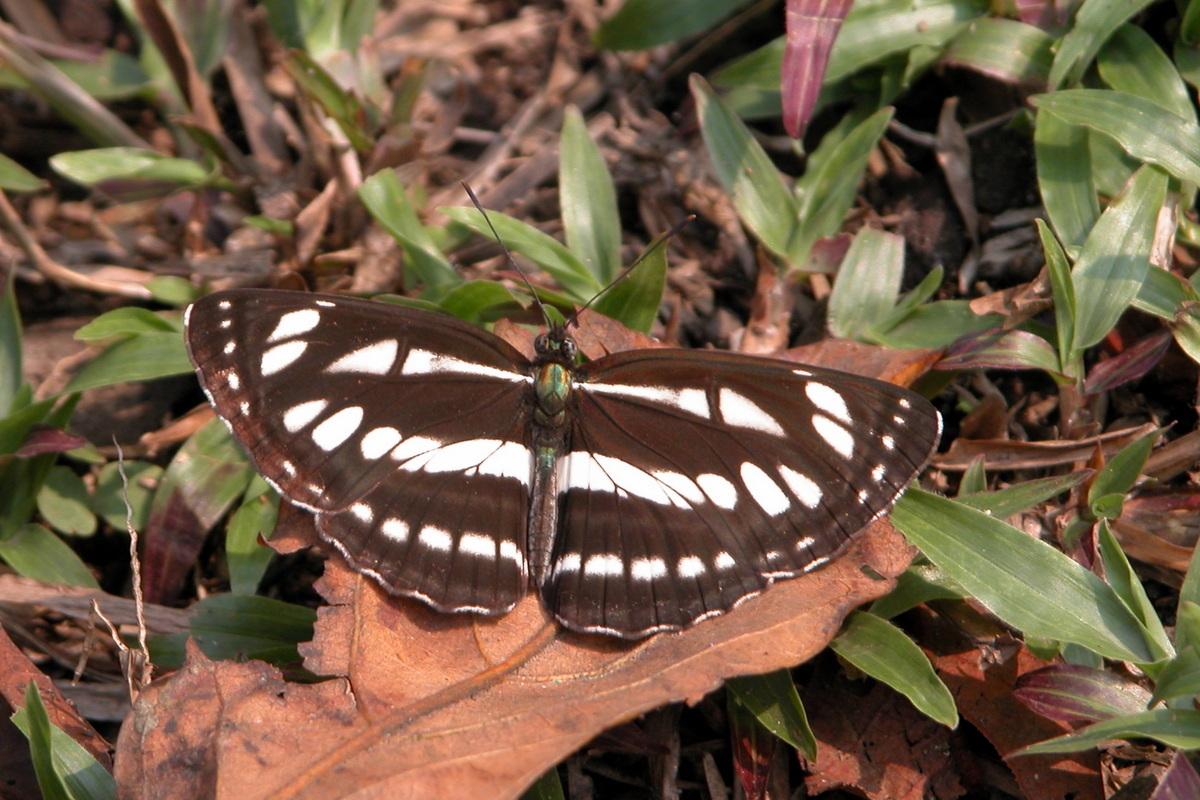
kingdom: Animalia
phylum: Arthropoda
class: Insecta
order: Lepidoptera
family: Nymphalidae
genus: Neptis
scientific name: Neptis hylas
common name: Common sailer
